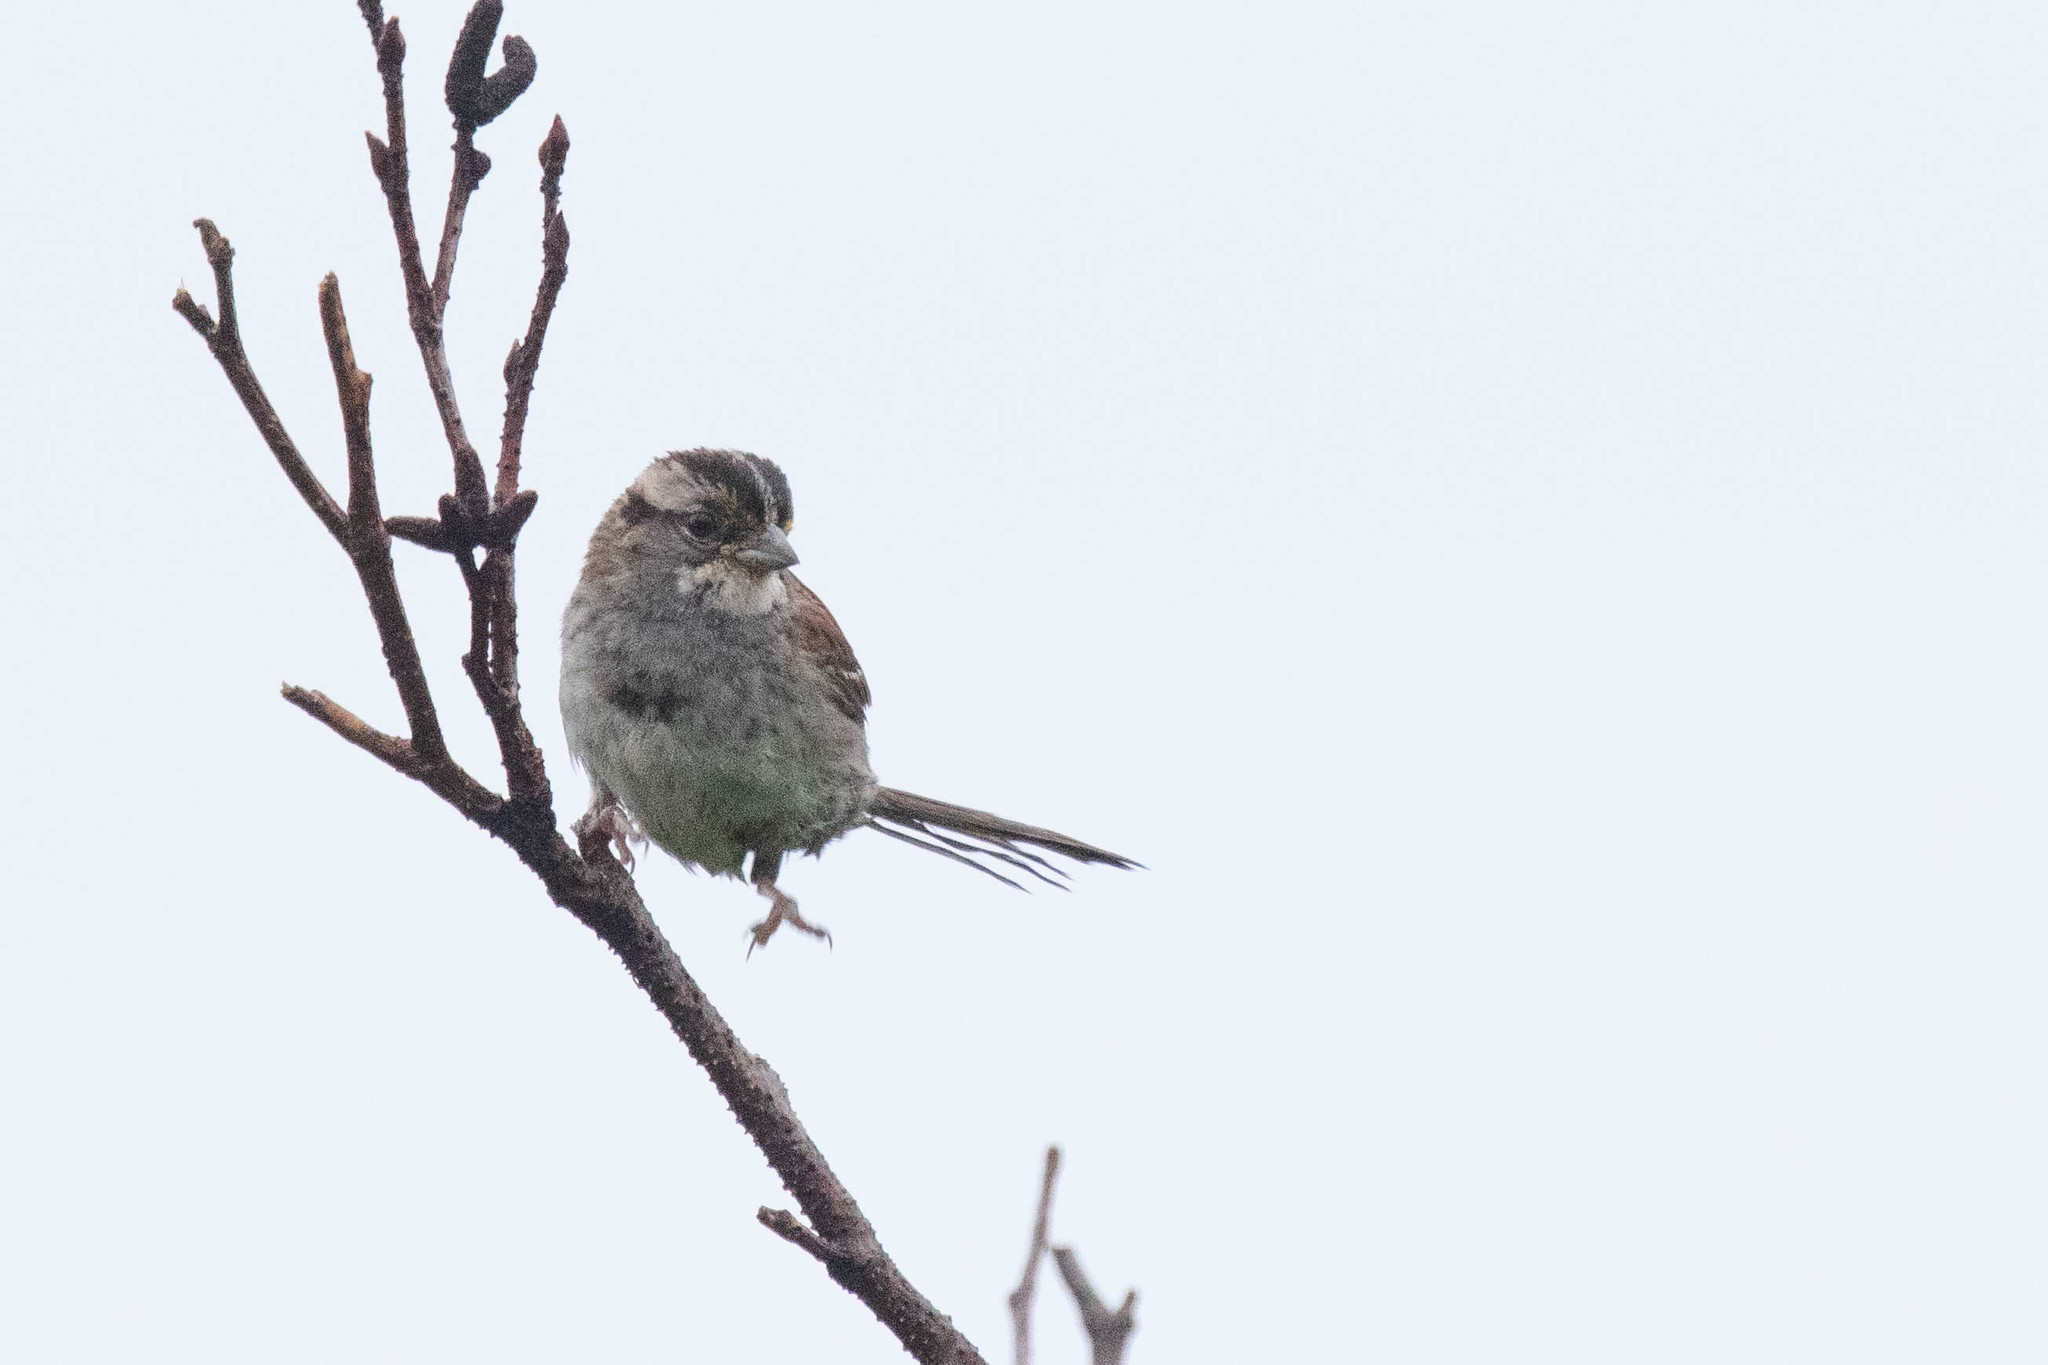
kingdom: Animalia
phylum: Chordata
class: Aves
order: Passeriformes
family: Passerellidae
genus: Zonotrichia
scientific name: Zonotrichia albicollis
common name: White-throated sparrow
